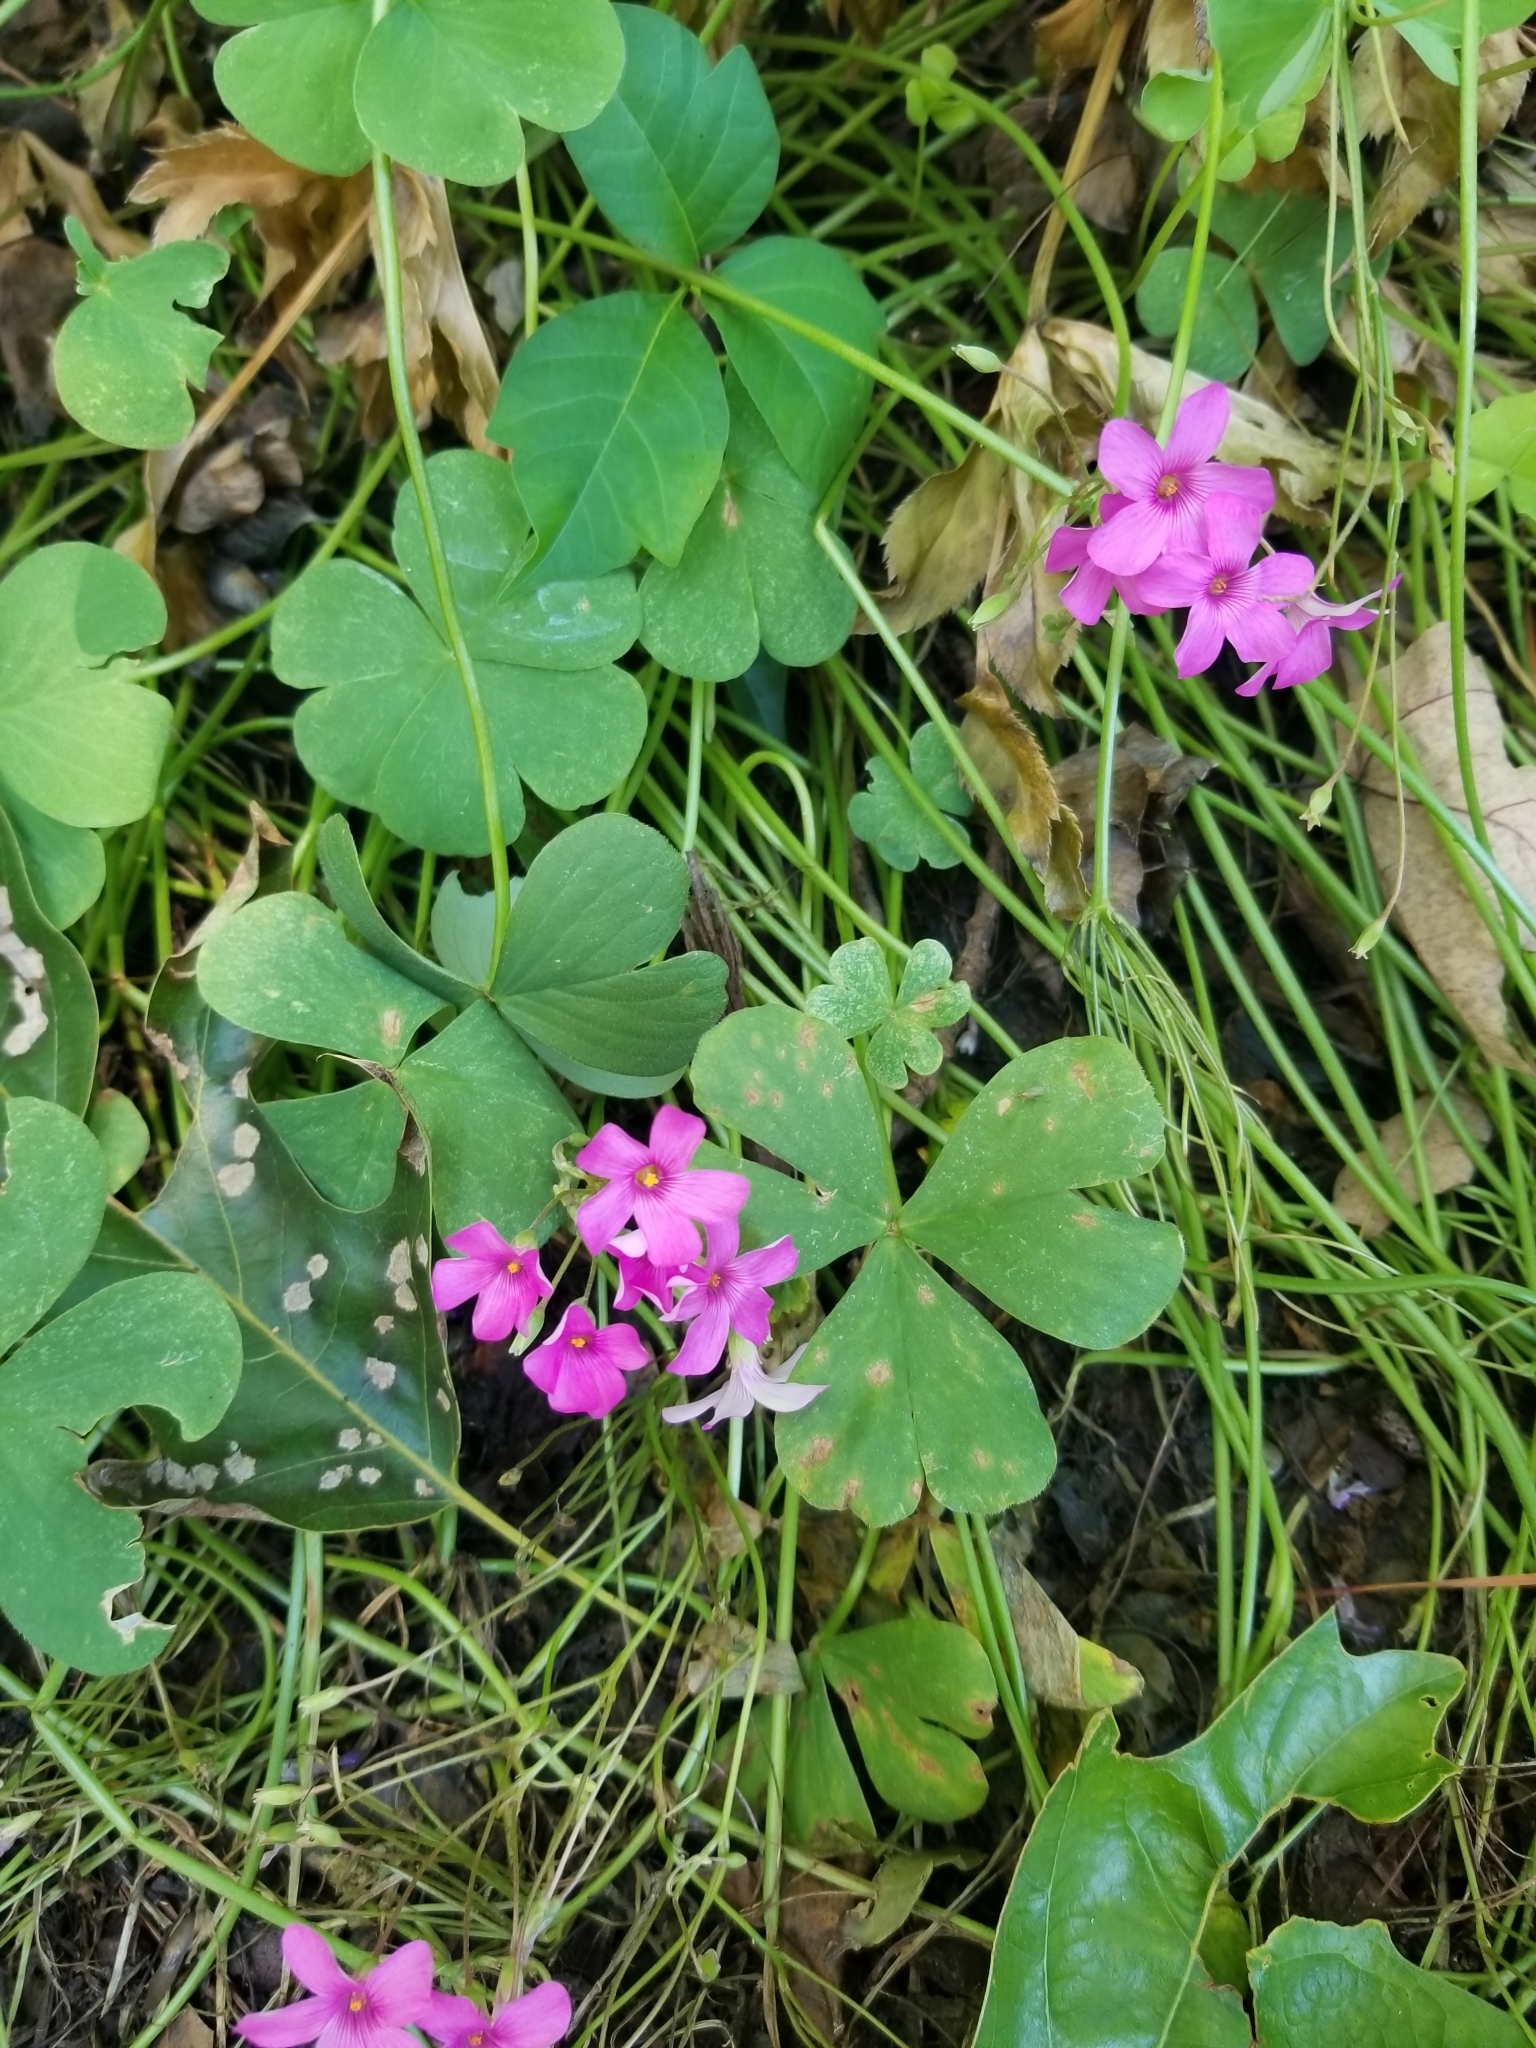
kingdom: Plantae
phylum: Tracheophyta
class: Magnoliopsida
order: Oxalidales
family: Oxalidaceae
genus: Oxalis
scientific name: Oxalis articulata
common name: Pink-sorrel
